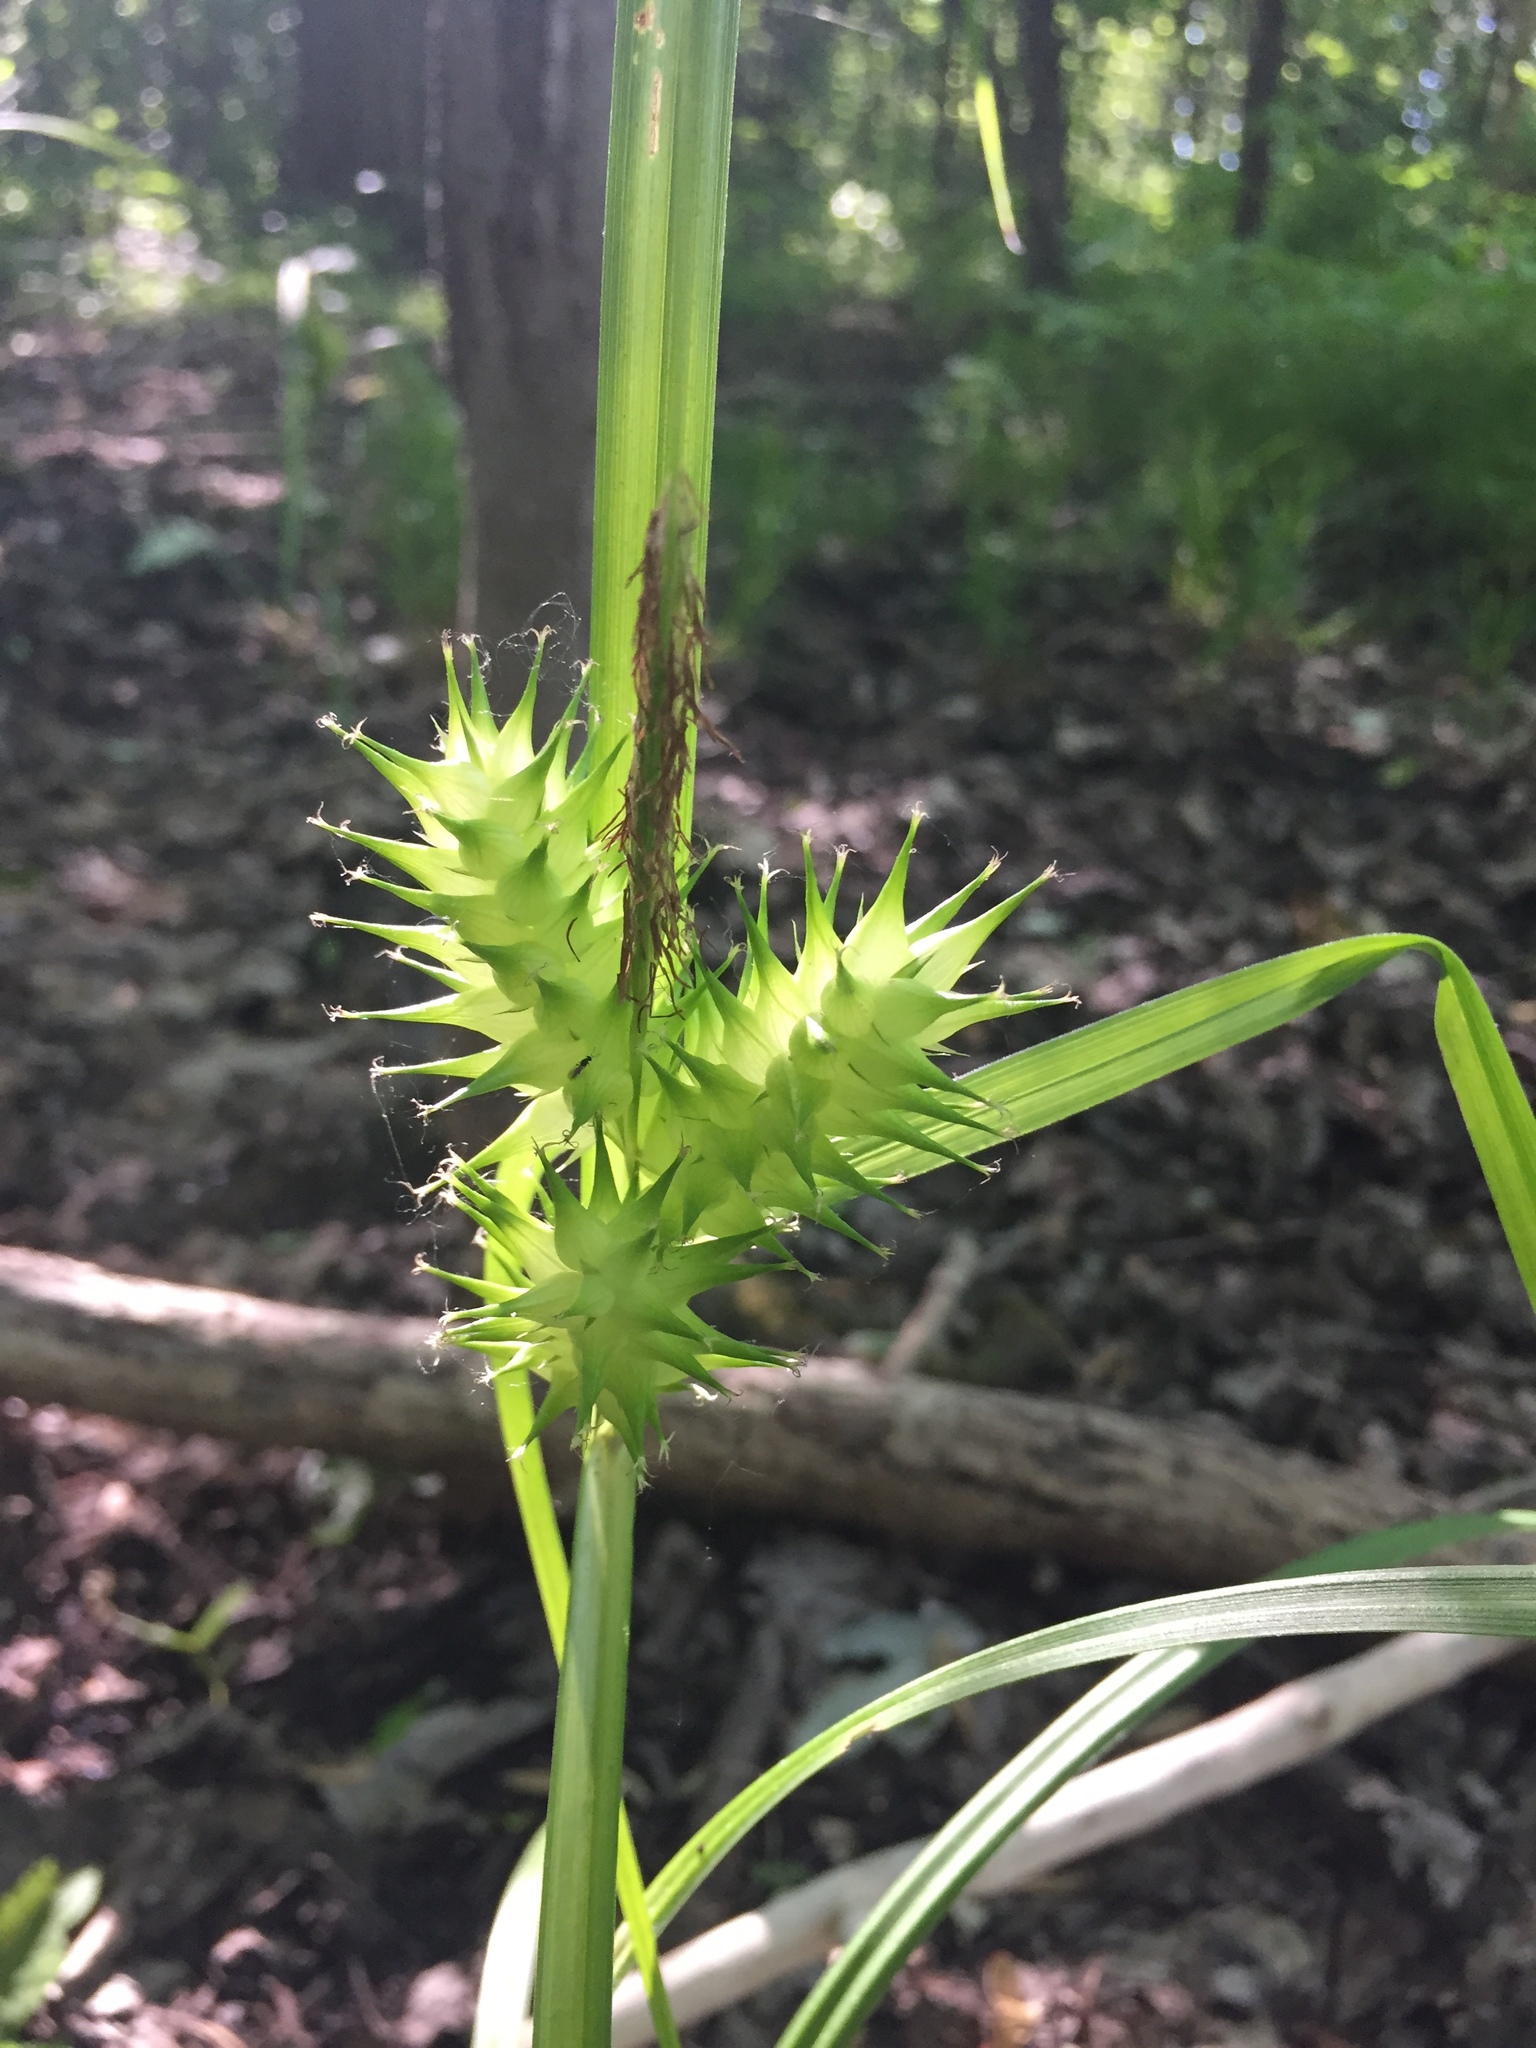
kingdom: Plantae
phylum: Tracheophyta
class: Liliopsida
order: Poales
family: Cyperaceae
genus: Carex
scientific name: Carex lupulina
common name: Hop sedge
